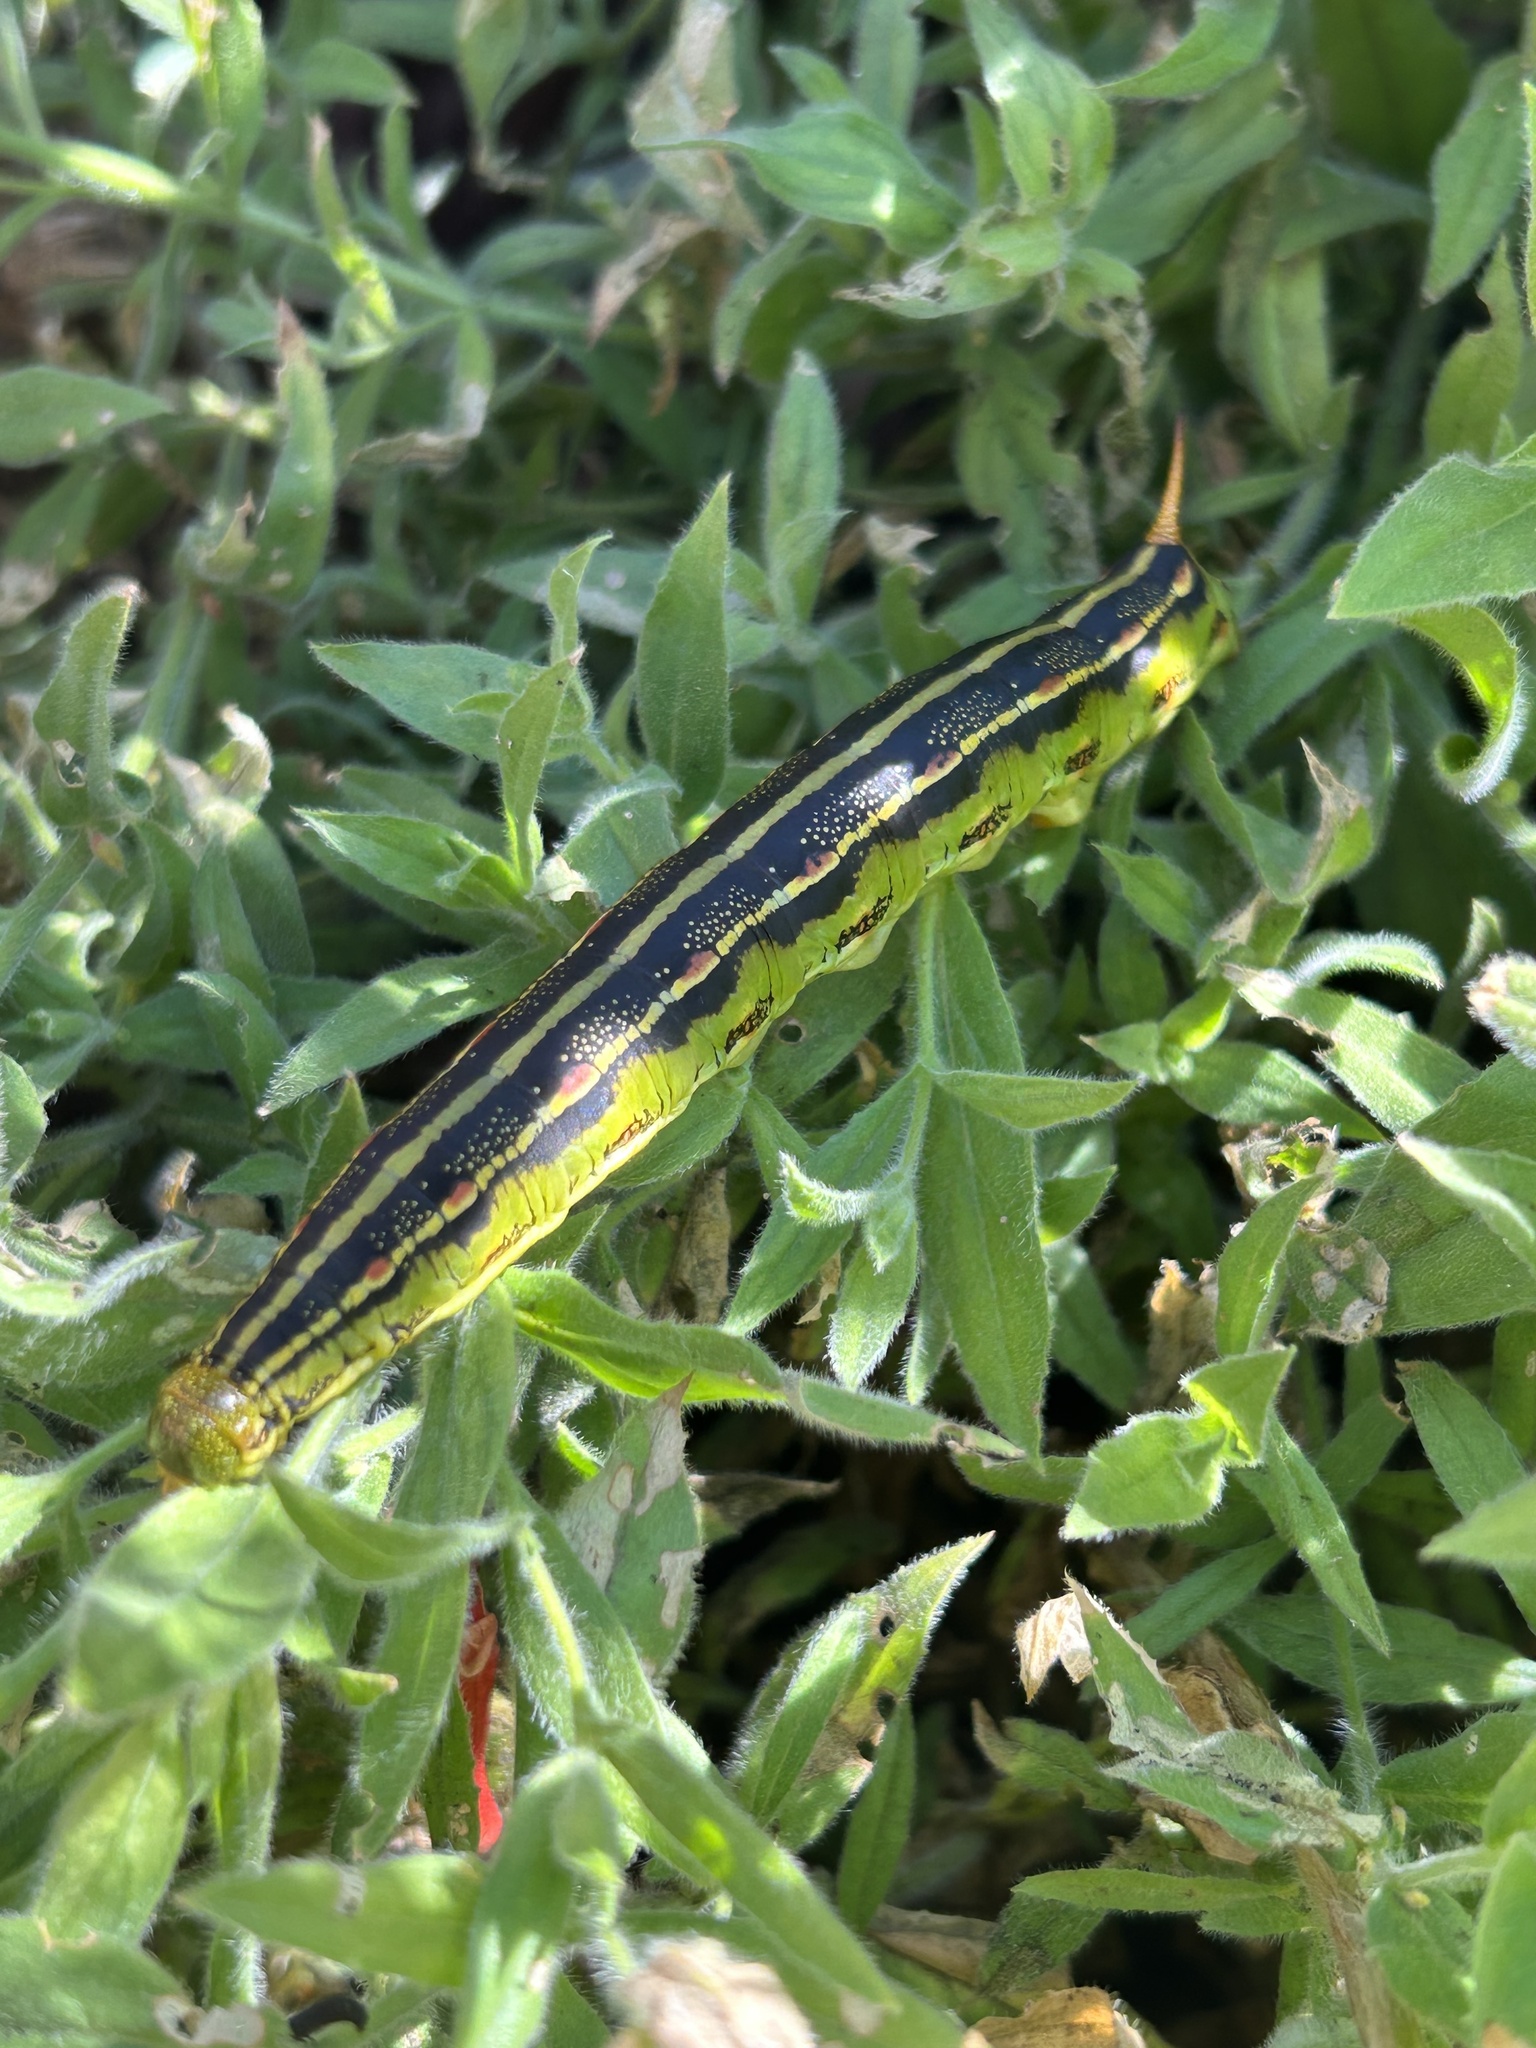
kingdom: Animalia
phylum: Arthropoda
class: Insecta
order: Lepidoptera
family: Sphingidae
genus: Hyles
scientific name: Hyles lineata
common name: White-lined sphinx
